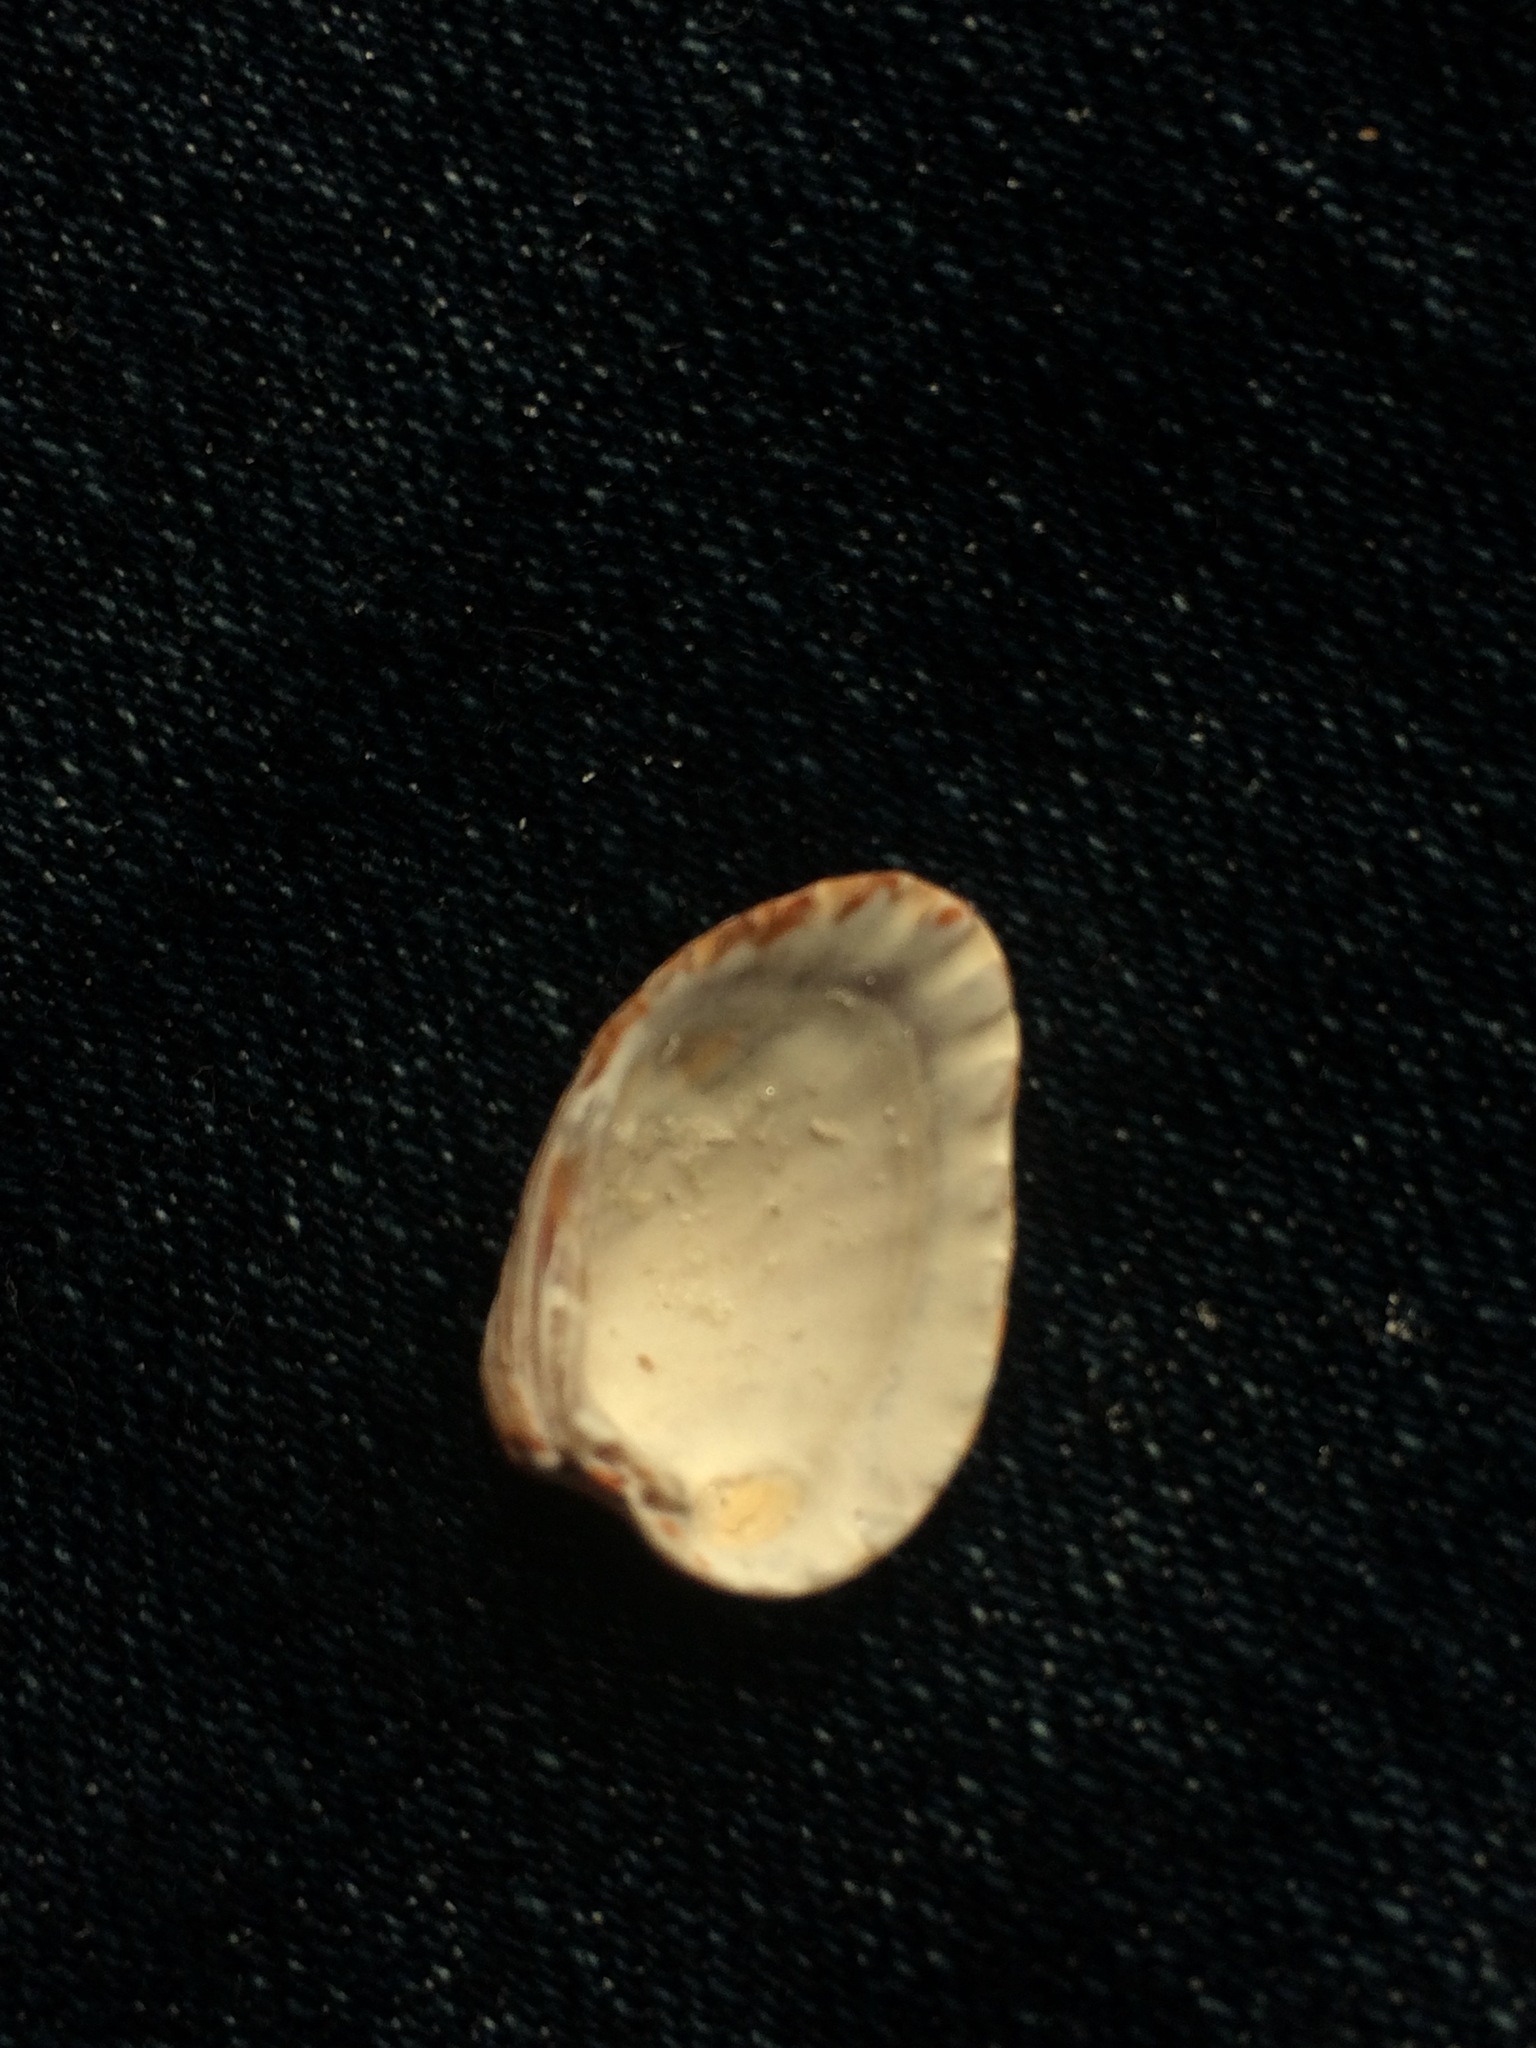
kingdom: Animalia
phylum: Mollusca
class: Bivalvia
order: Carditida
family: Carditidae
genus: Cardites
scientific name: Cardites floridanus
